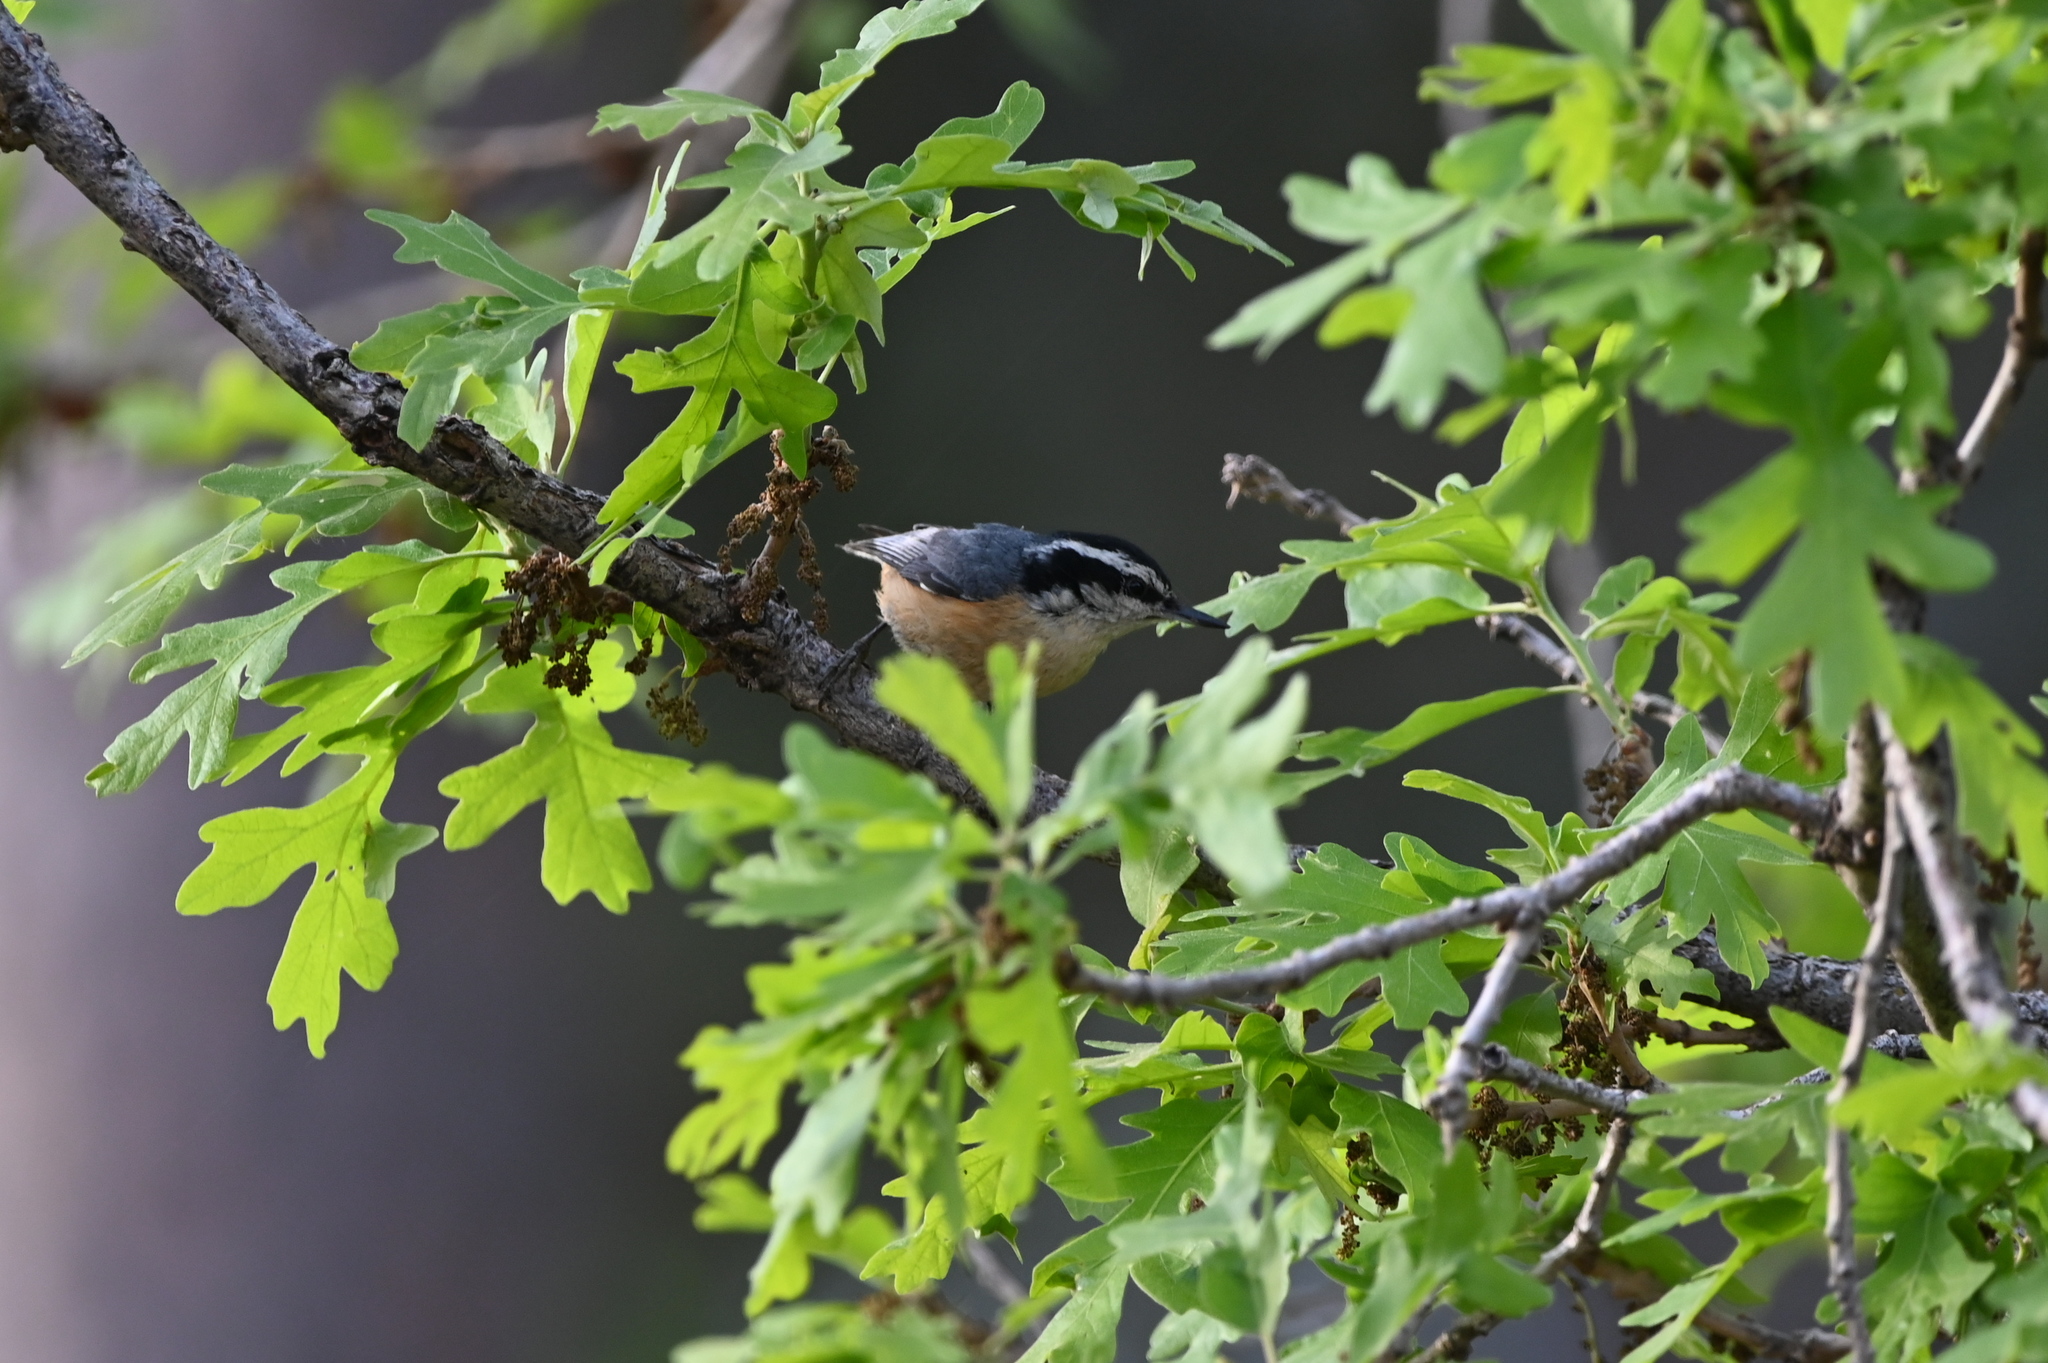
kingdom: Animalia
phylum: Chordata
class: Aves
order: Passeriformes
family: Sittidae
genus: Sitta
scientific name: Sitta canadensis
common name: Red-breasted nuthatch
